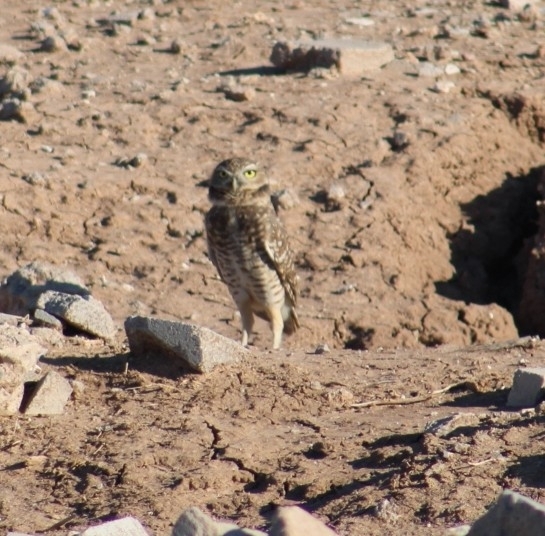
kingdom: Animalia
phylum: Chordata
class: Aves
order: Strigiformes
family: Strigidae
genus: Athene
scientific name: Athene cunicularia
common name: Burrowing owl
